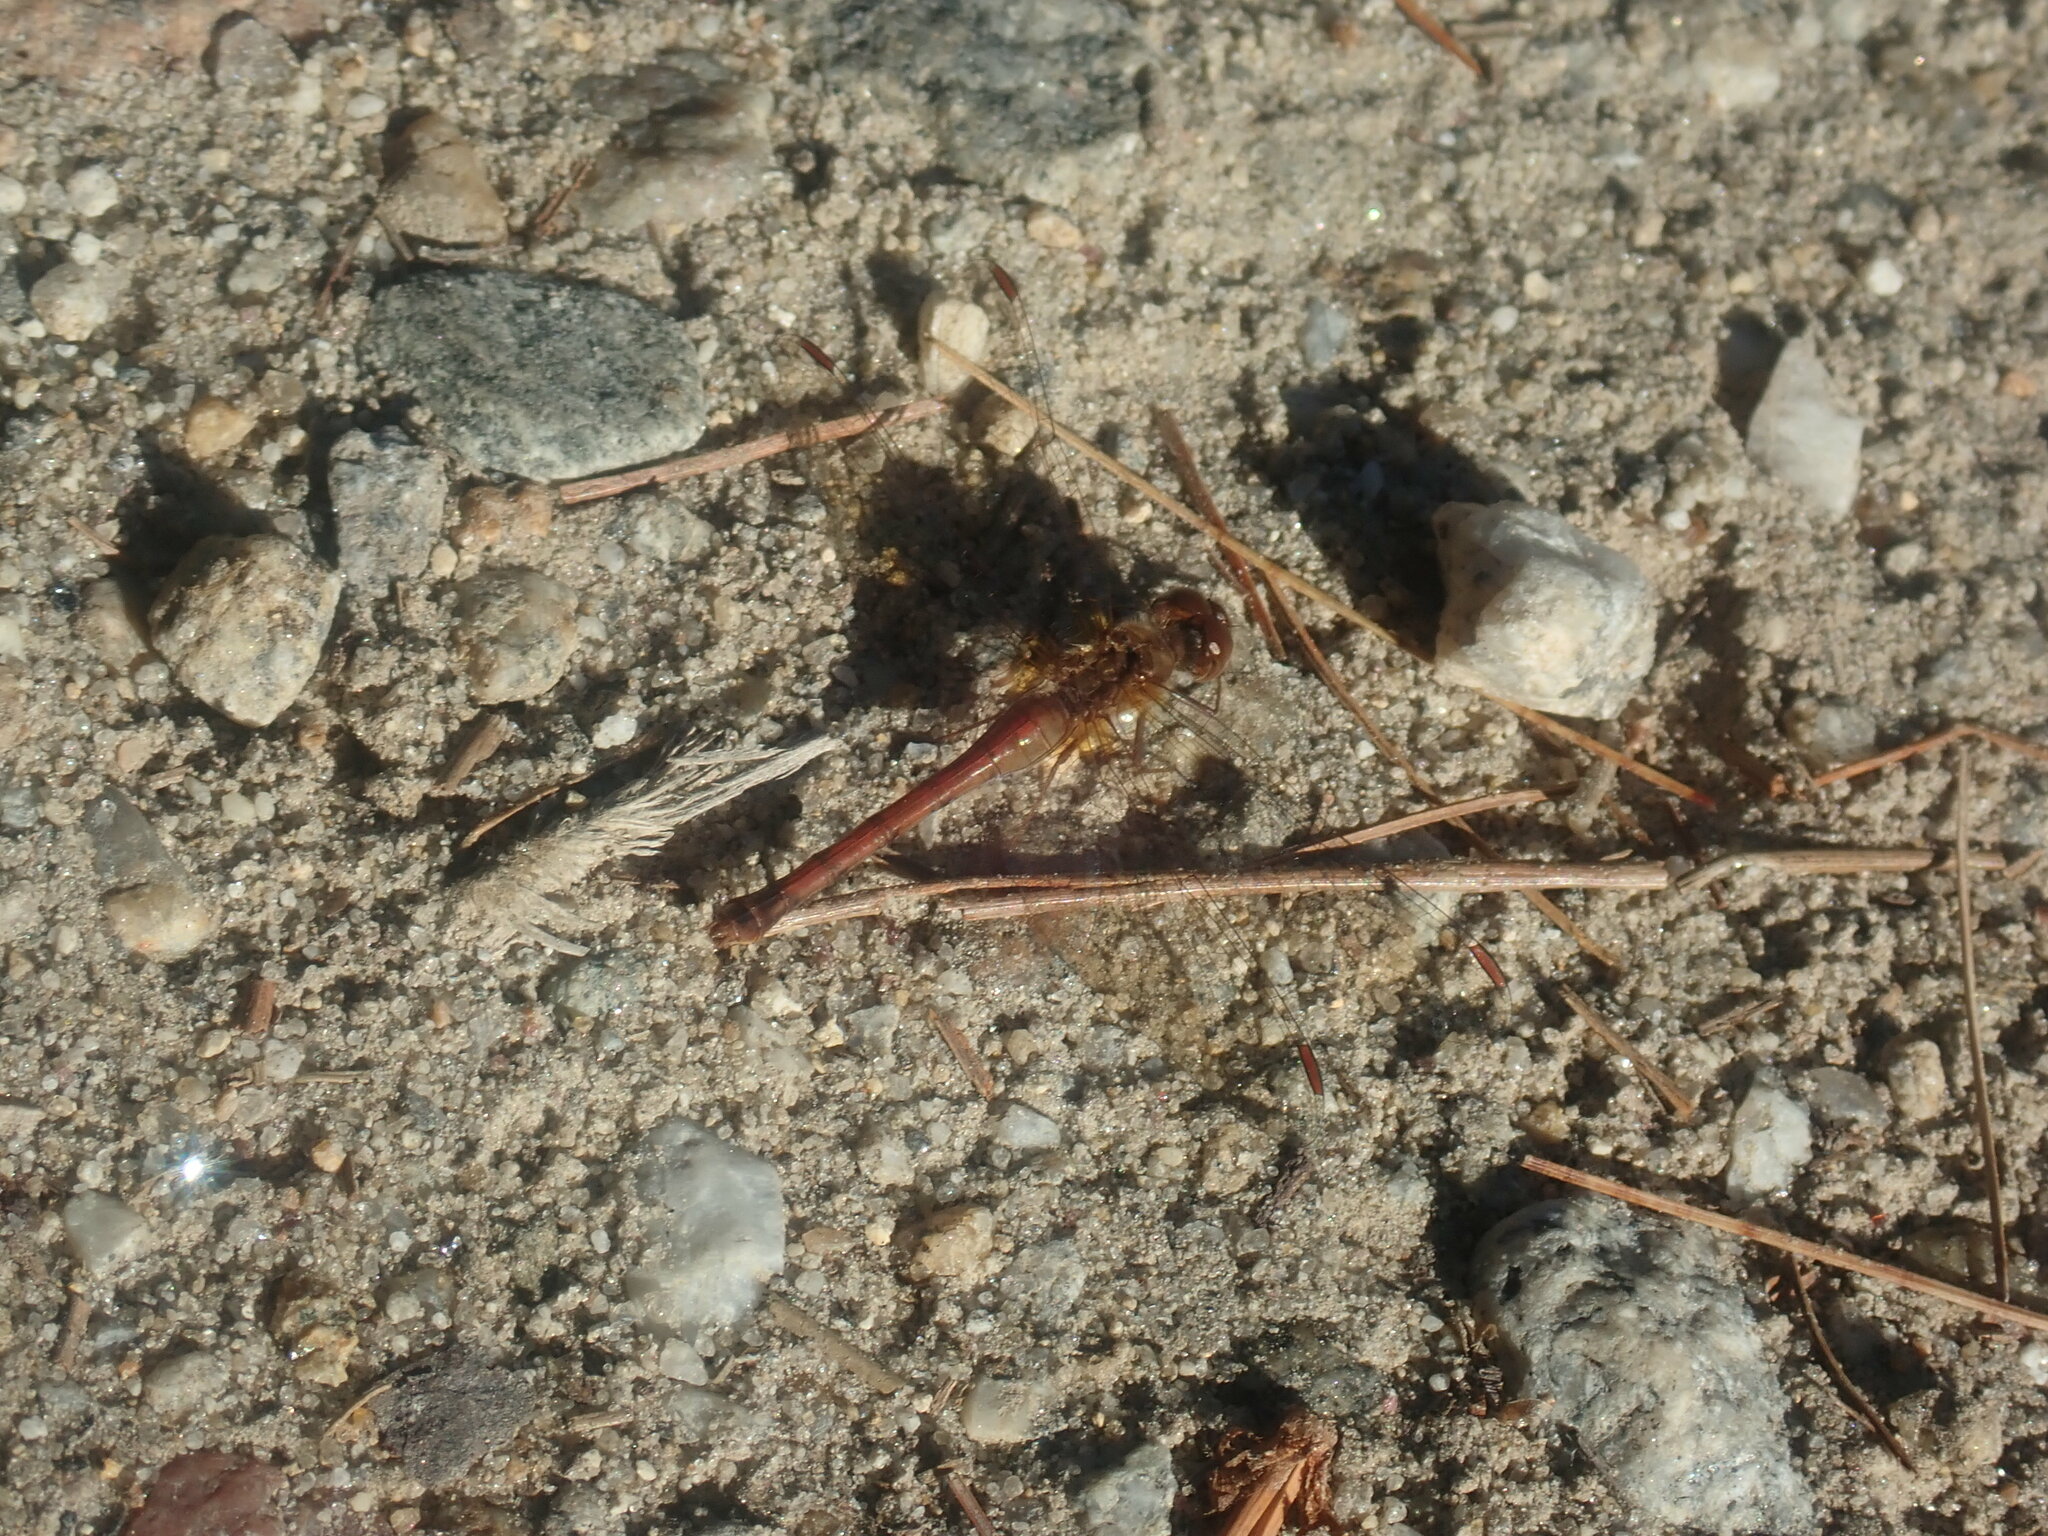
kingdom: Animalia
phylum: Arthropoda
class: Insecta
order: Odonata
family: Libellulidae
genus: Sympetrum
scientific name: Sympetrum vicinum
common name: Autumn meadowhawk
